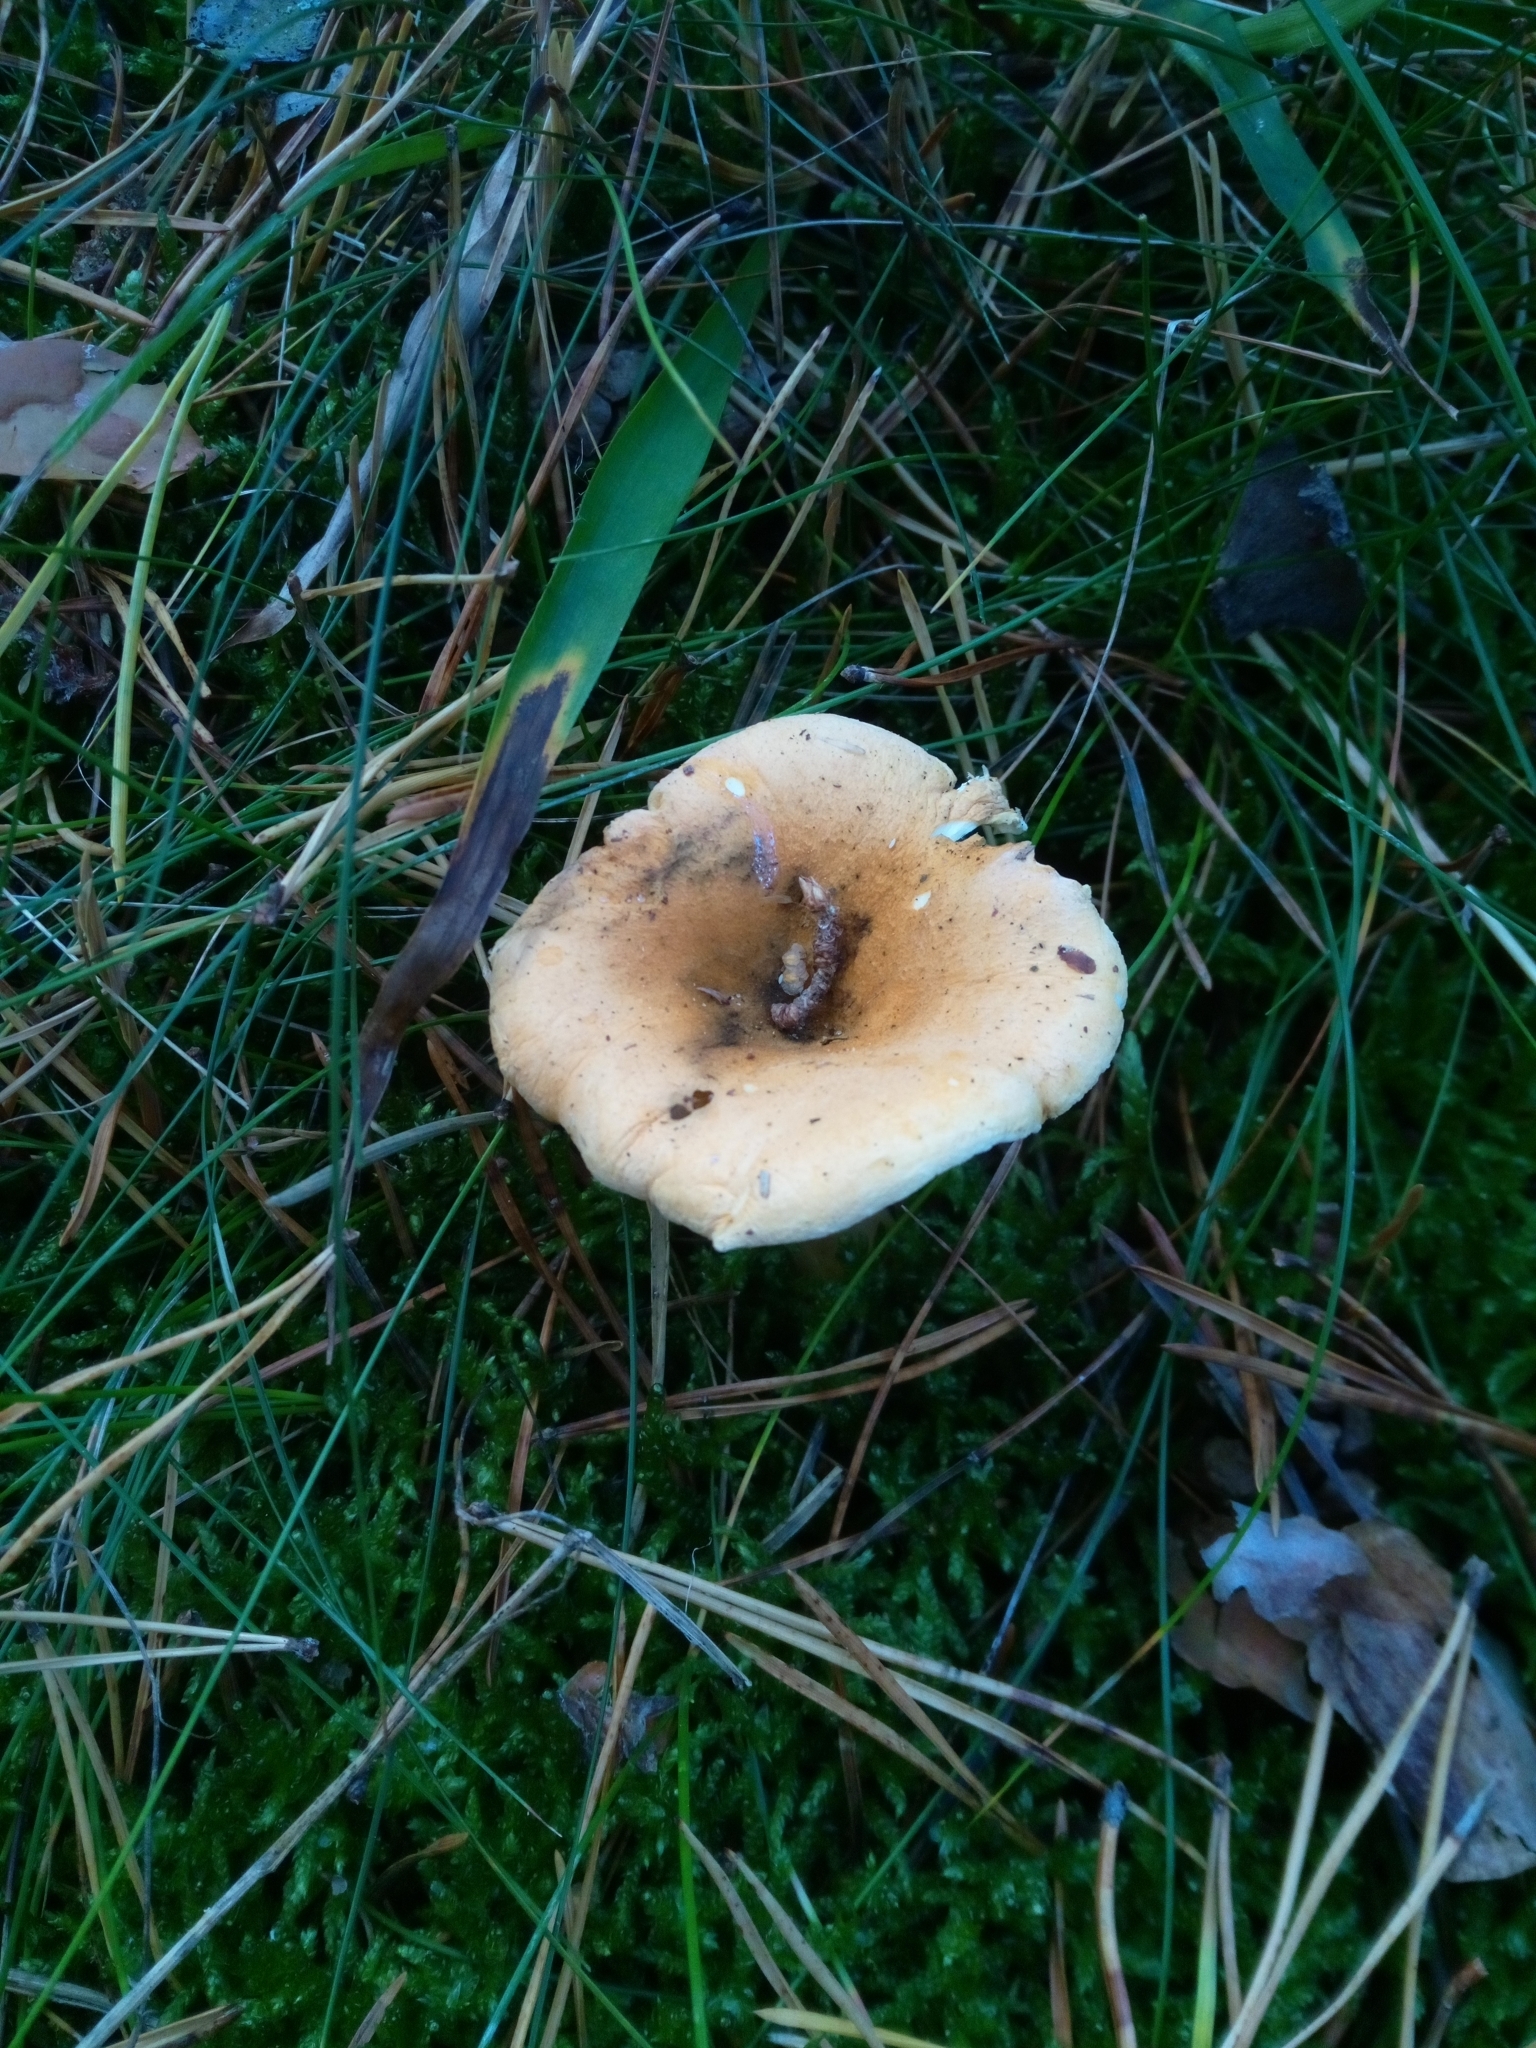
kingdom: Fungi
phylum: Basidiomycota
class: Agaricomycetes
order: Boletales
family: Hygrophoropsidaceae
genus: Hygrophoropsis
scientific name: Hygrophoropsis aurantiaca
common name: False chanterelle
